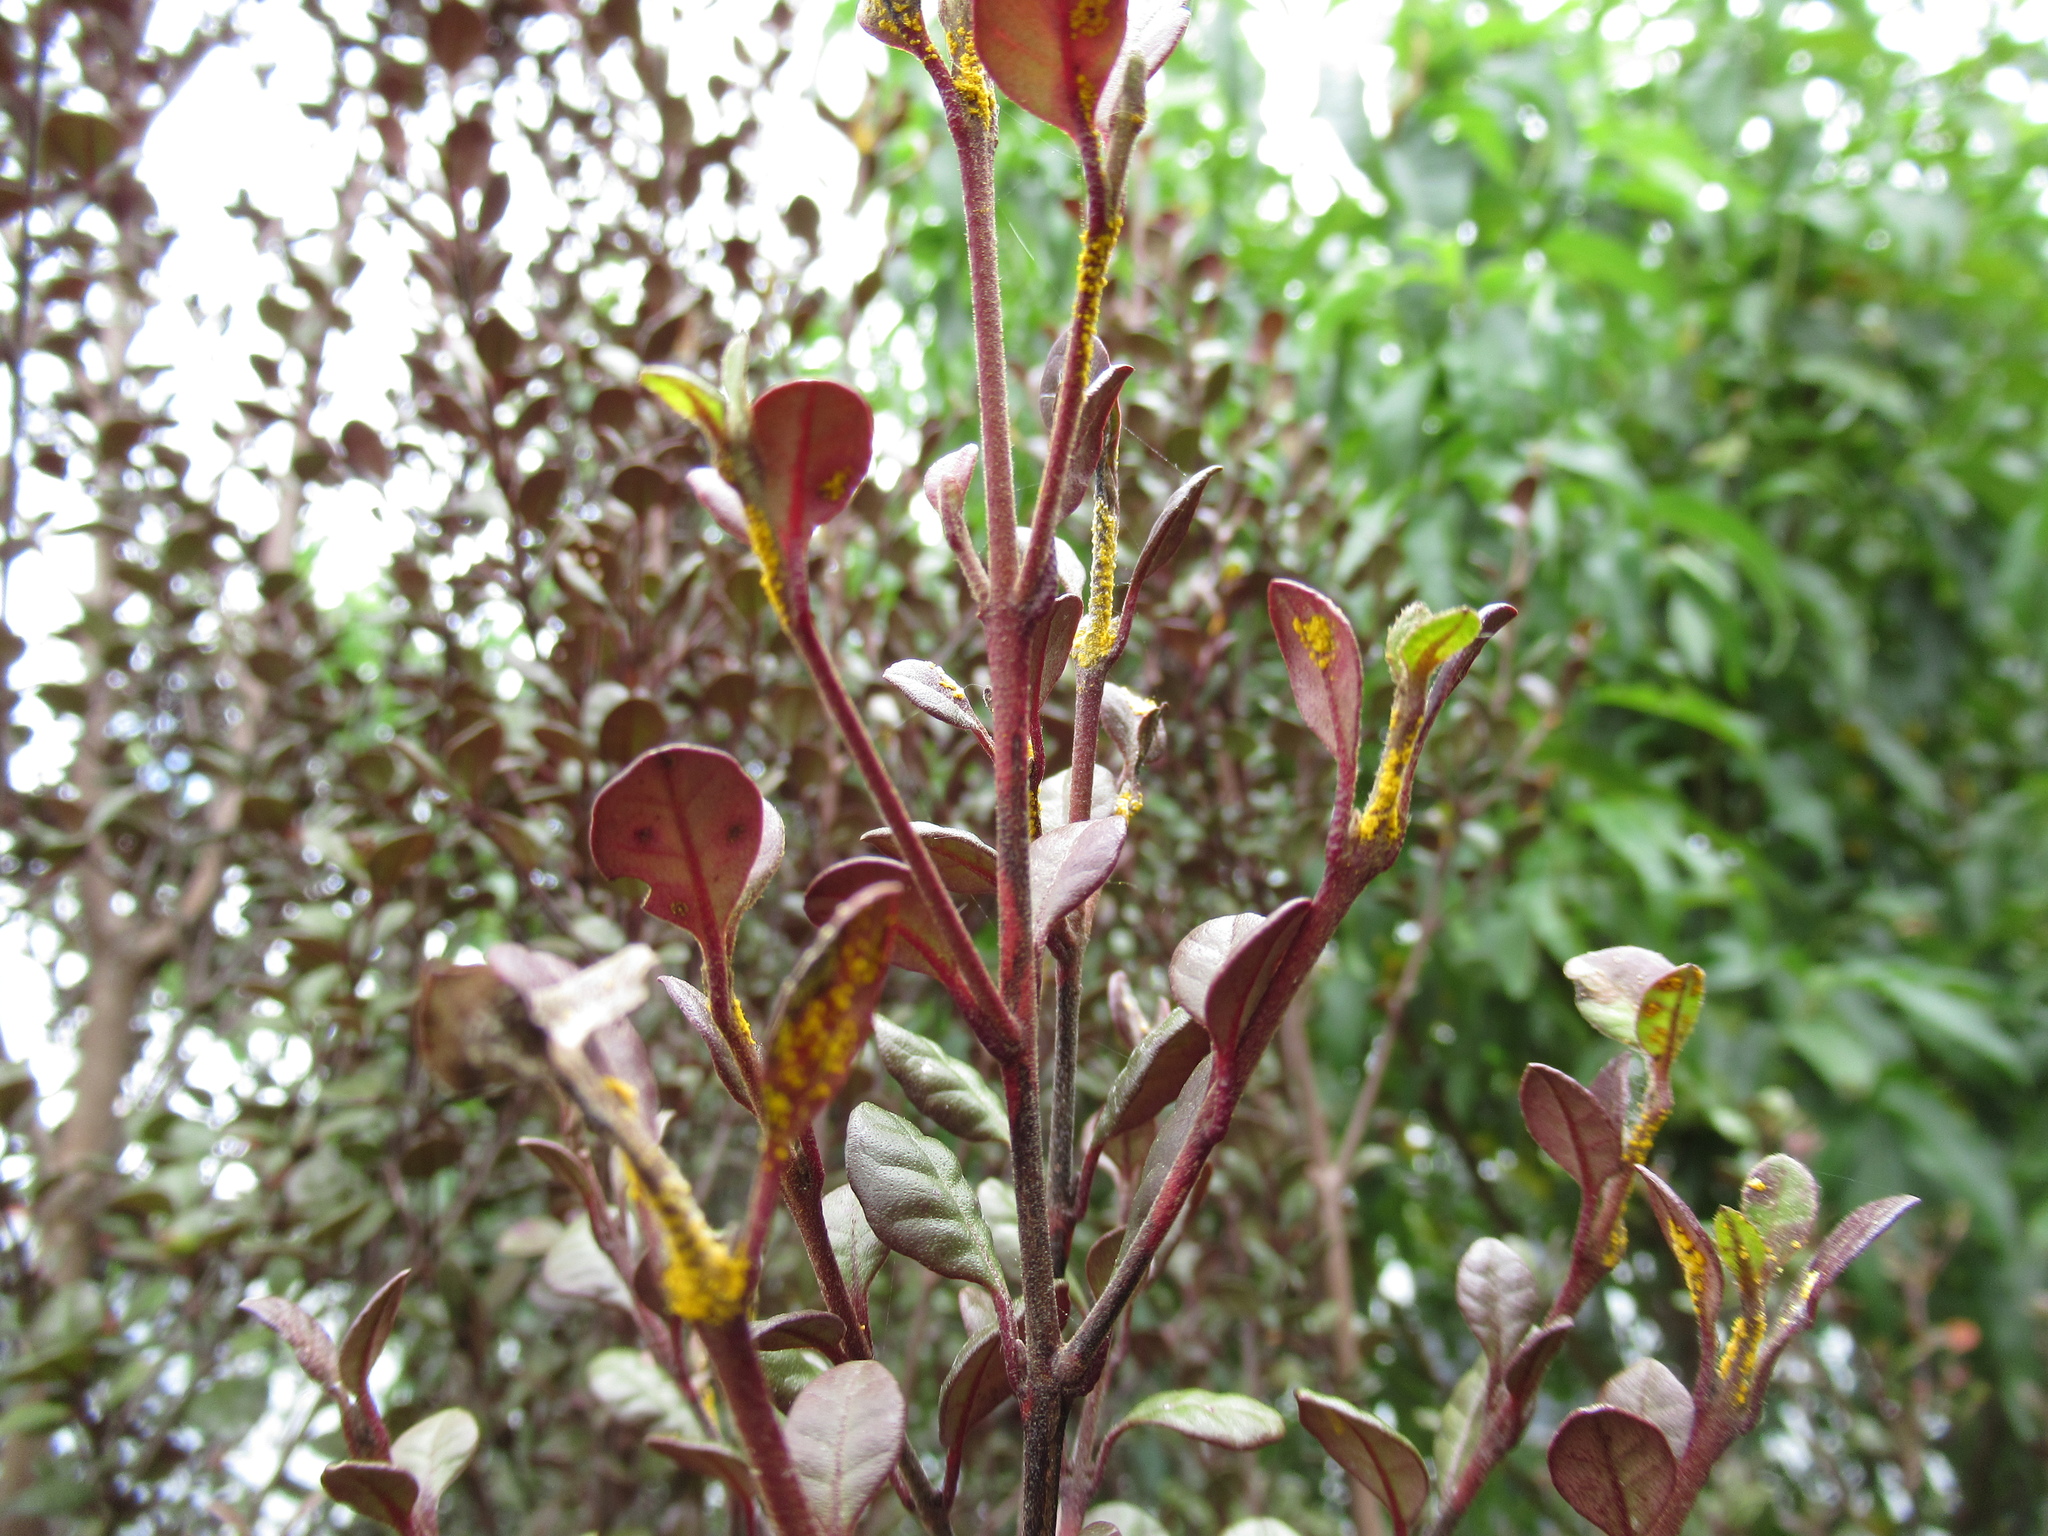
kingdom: Fungi
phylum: Basidiomycota
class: Pucciniomycetes
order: Pucciniales
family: Sphaerophragmiaceae
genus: Austropuccinia
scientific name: Austropuccinia psidii
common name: Myrtle rust
